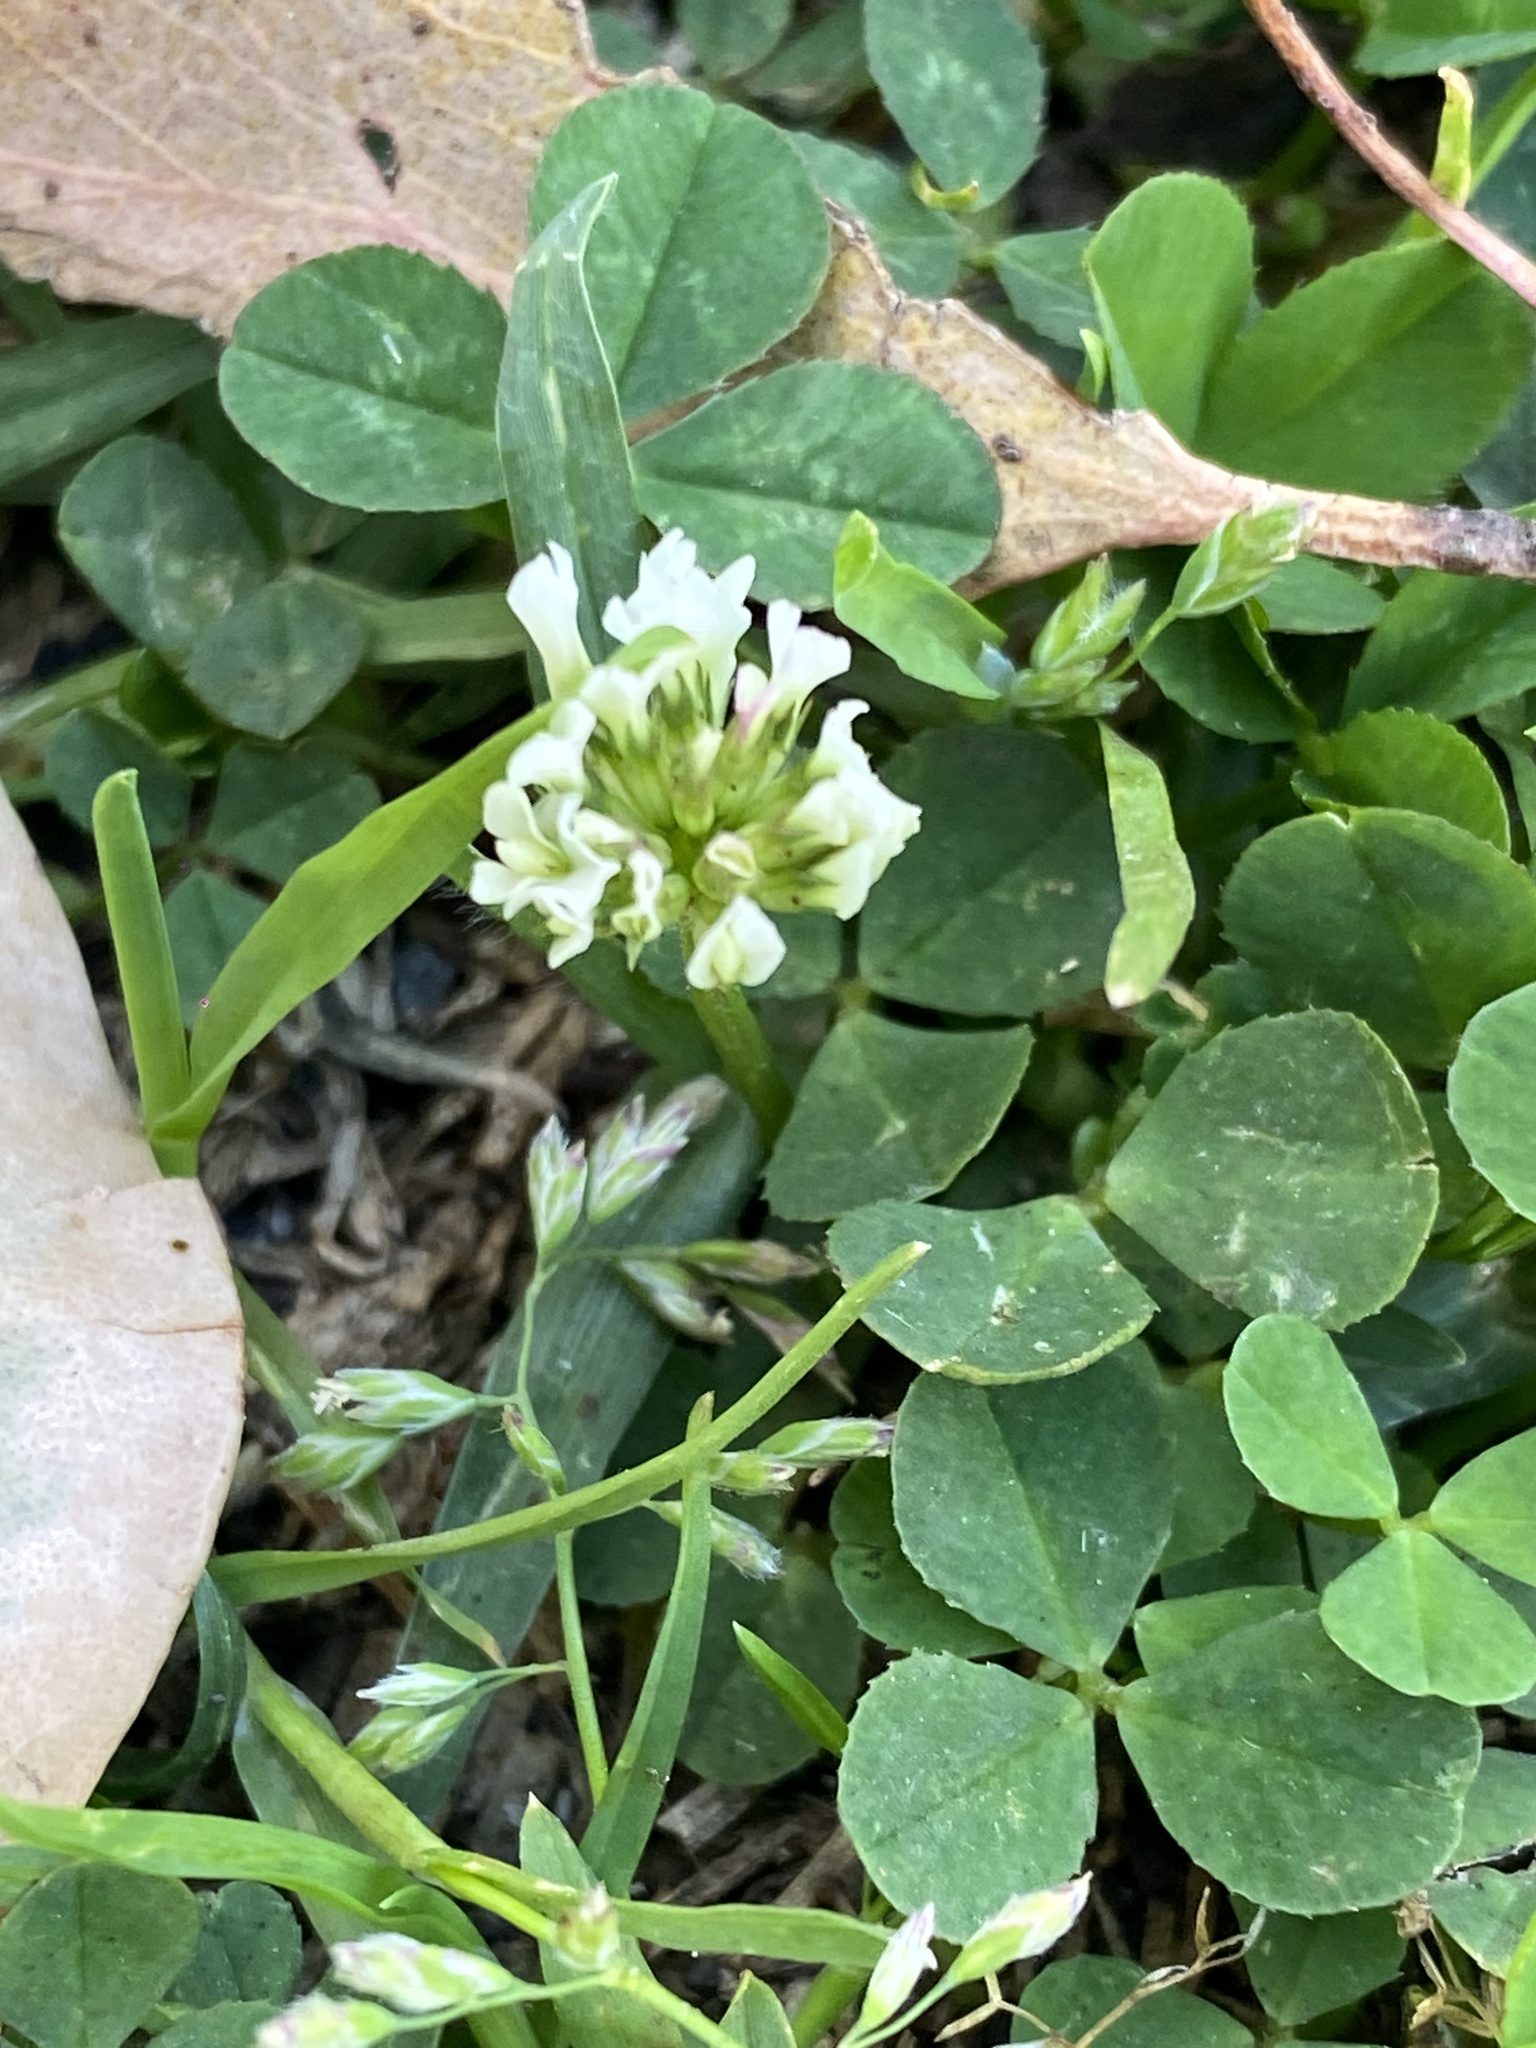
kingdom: Plantae
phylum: Tracheophyta
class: Magnoliopsida
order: Fabales
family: Fabaceae
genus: Trifolium
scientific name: Trifolium repens
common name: White clover
